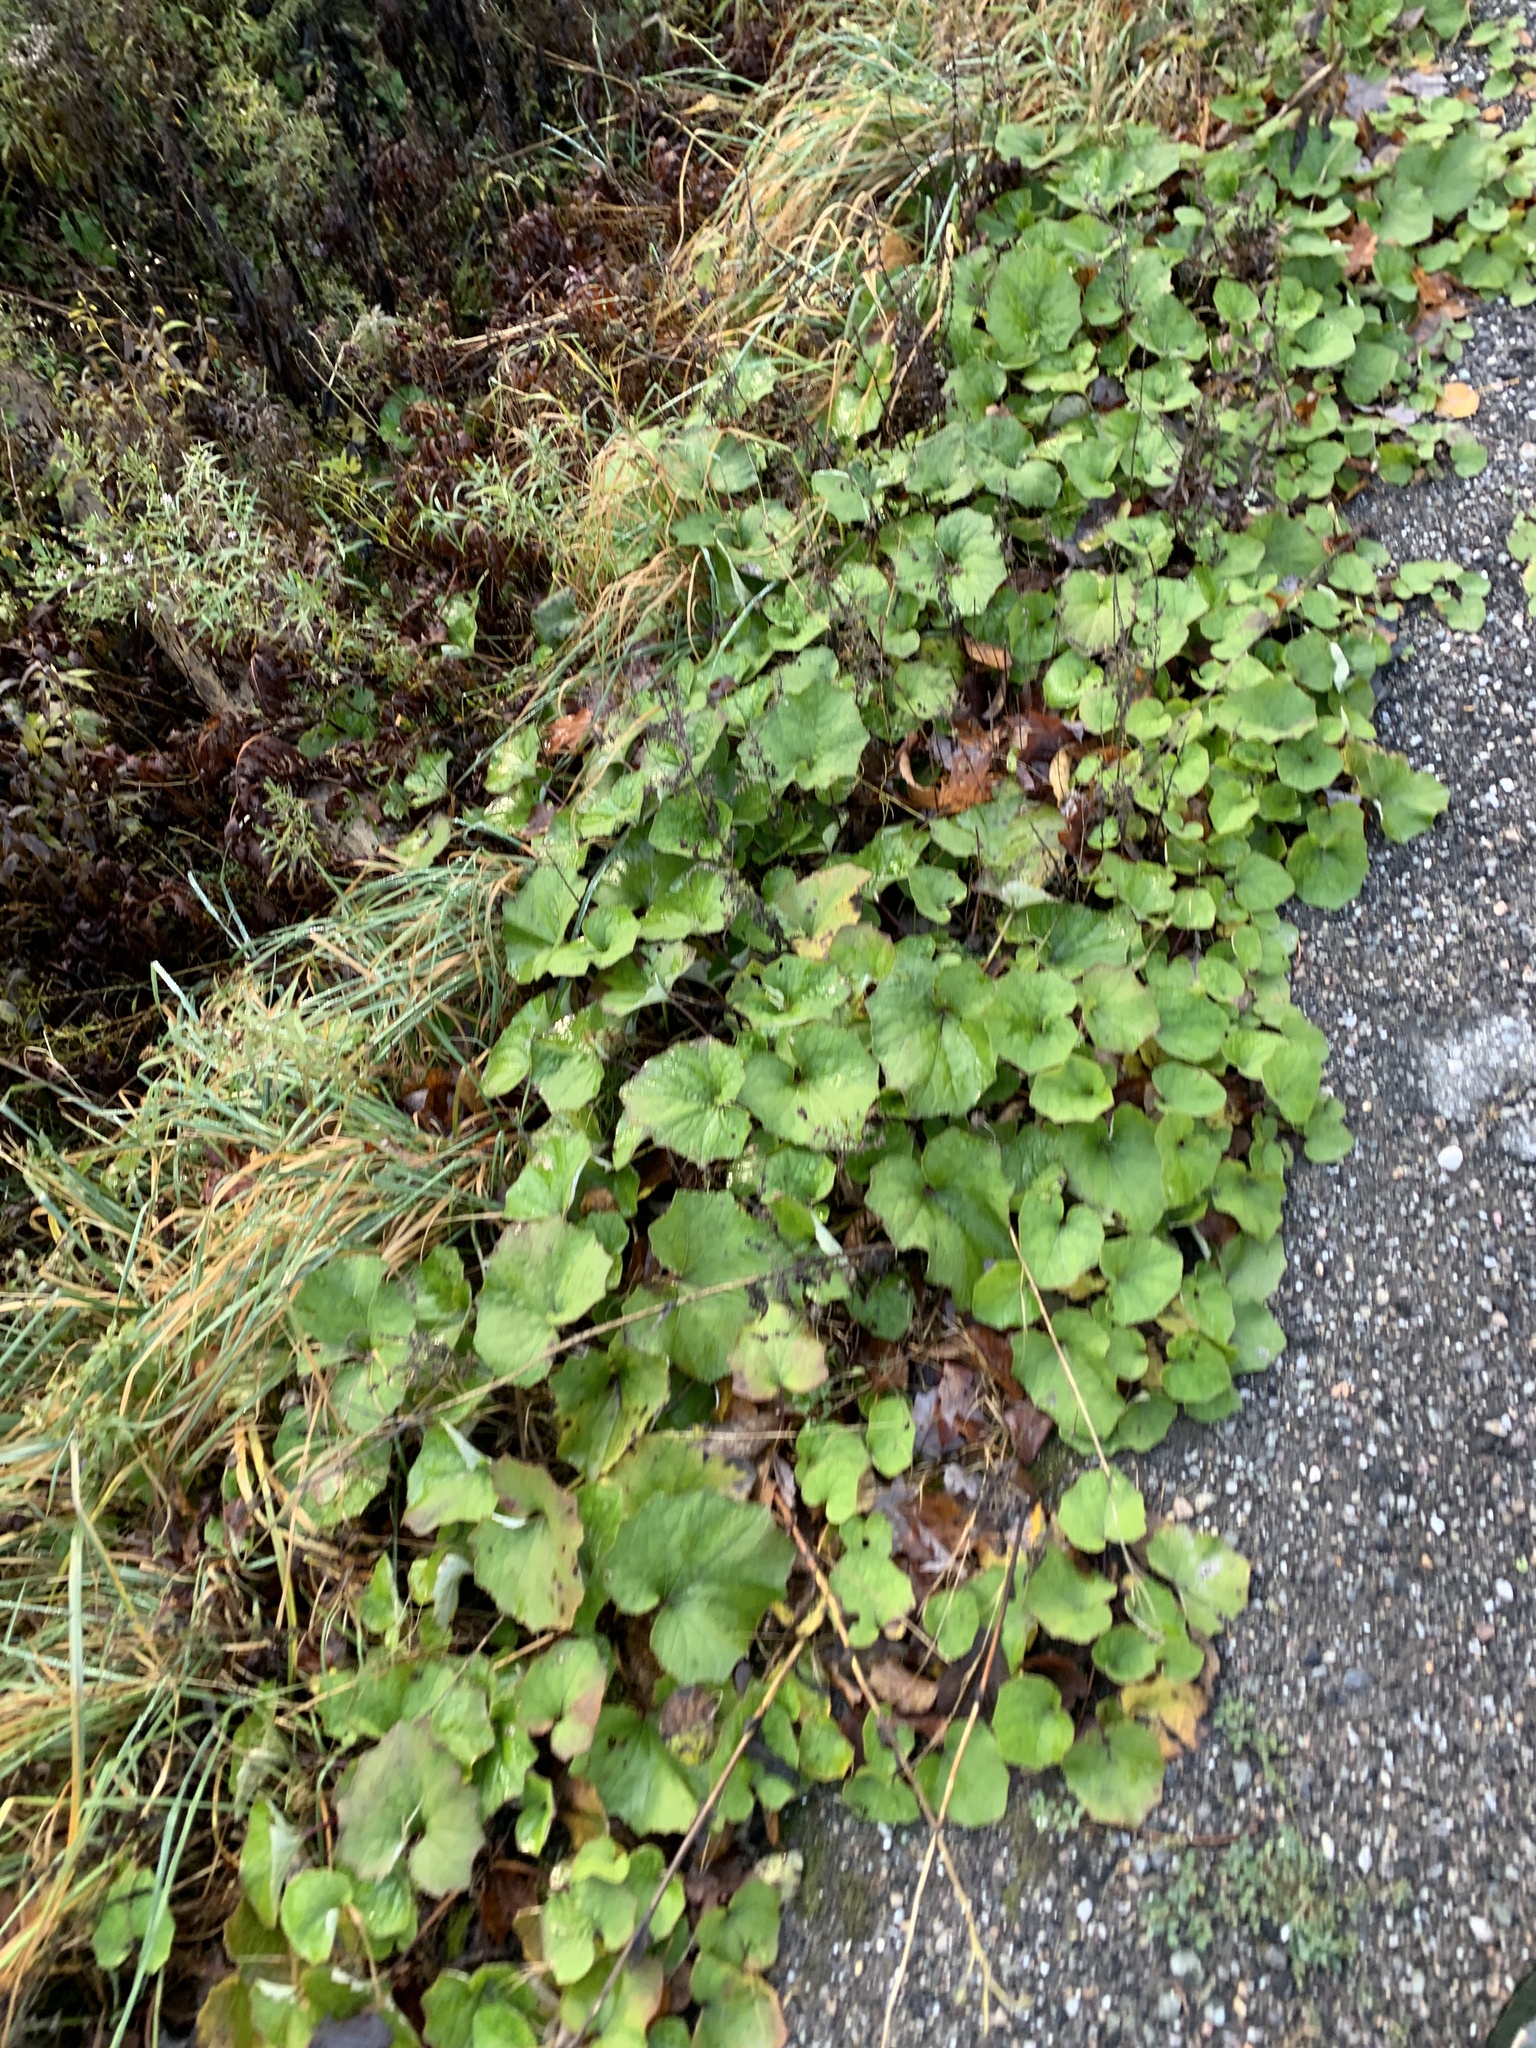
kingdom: Plantae
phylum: Tracheophyta
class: Magnoliopsida
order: Asterales
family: Asteraceae
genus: Tussilago
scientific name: Tussilago farfara
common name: Coltsfoot
